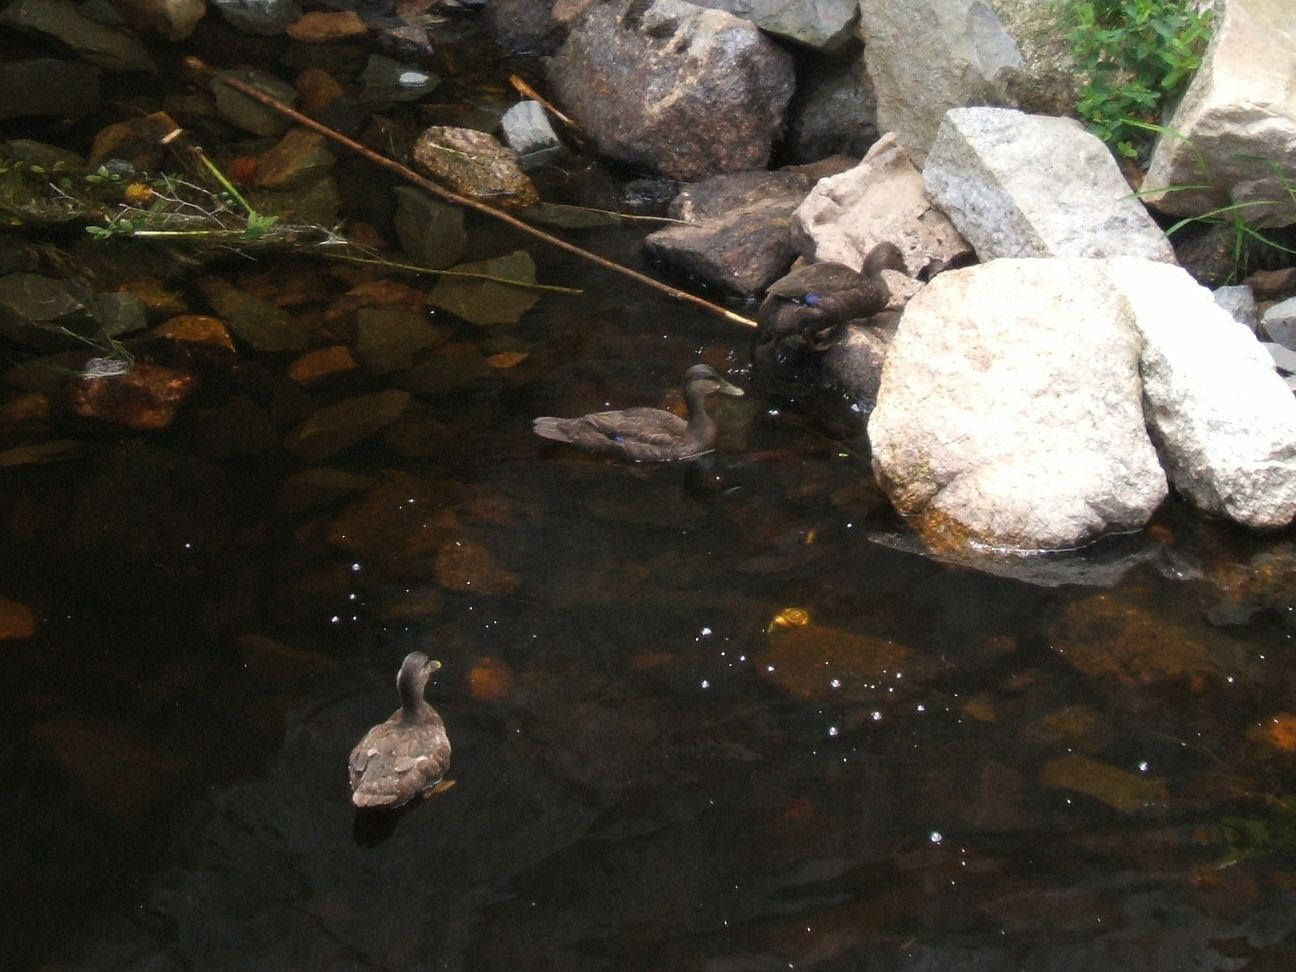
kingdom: Animalia
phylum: Chordata
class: Aves
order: Anseriformes
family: Anatidae
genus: Anas
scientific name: Anas rubripes
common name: American black duck
